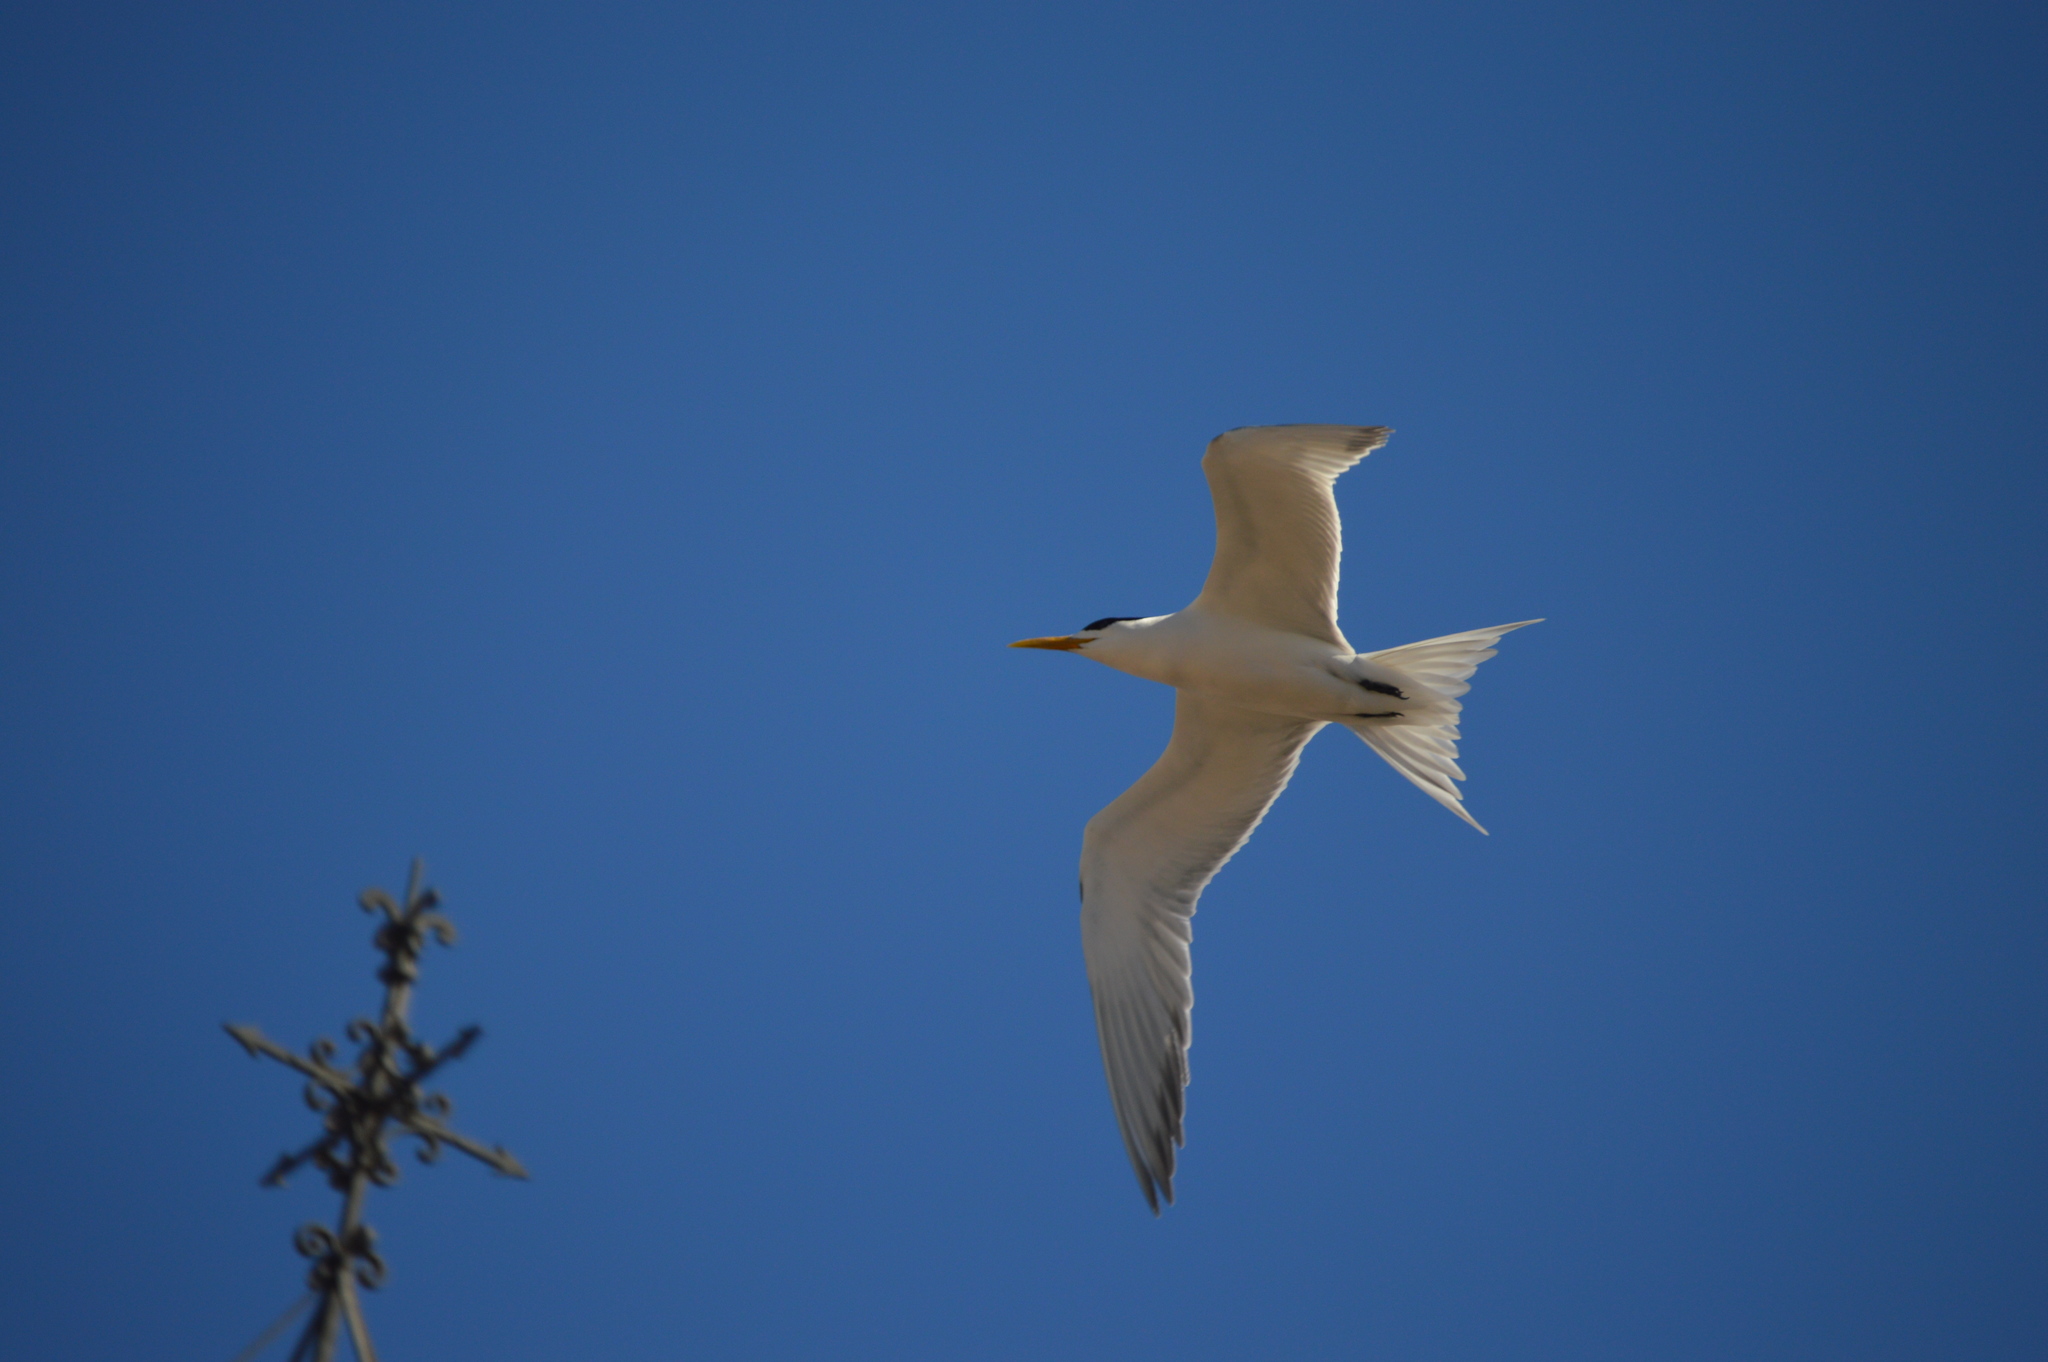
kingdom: Animalia
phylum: Chordata
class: Aves
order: Charadriiformes
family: Laridae
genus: Thalasseus
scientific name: Thalasseus bergii
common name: Greater crested tern
